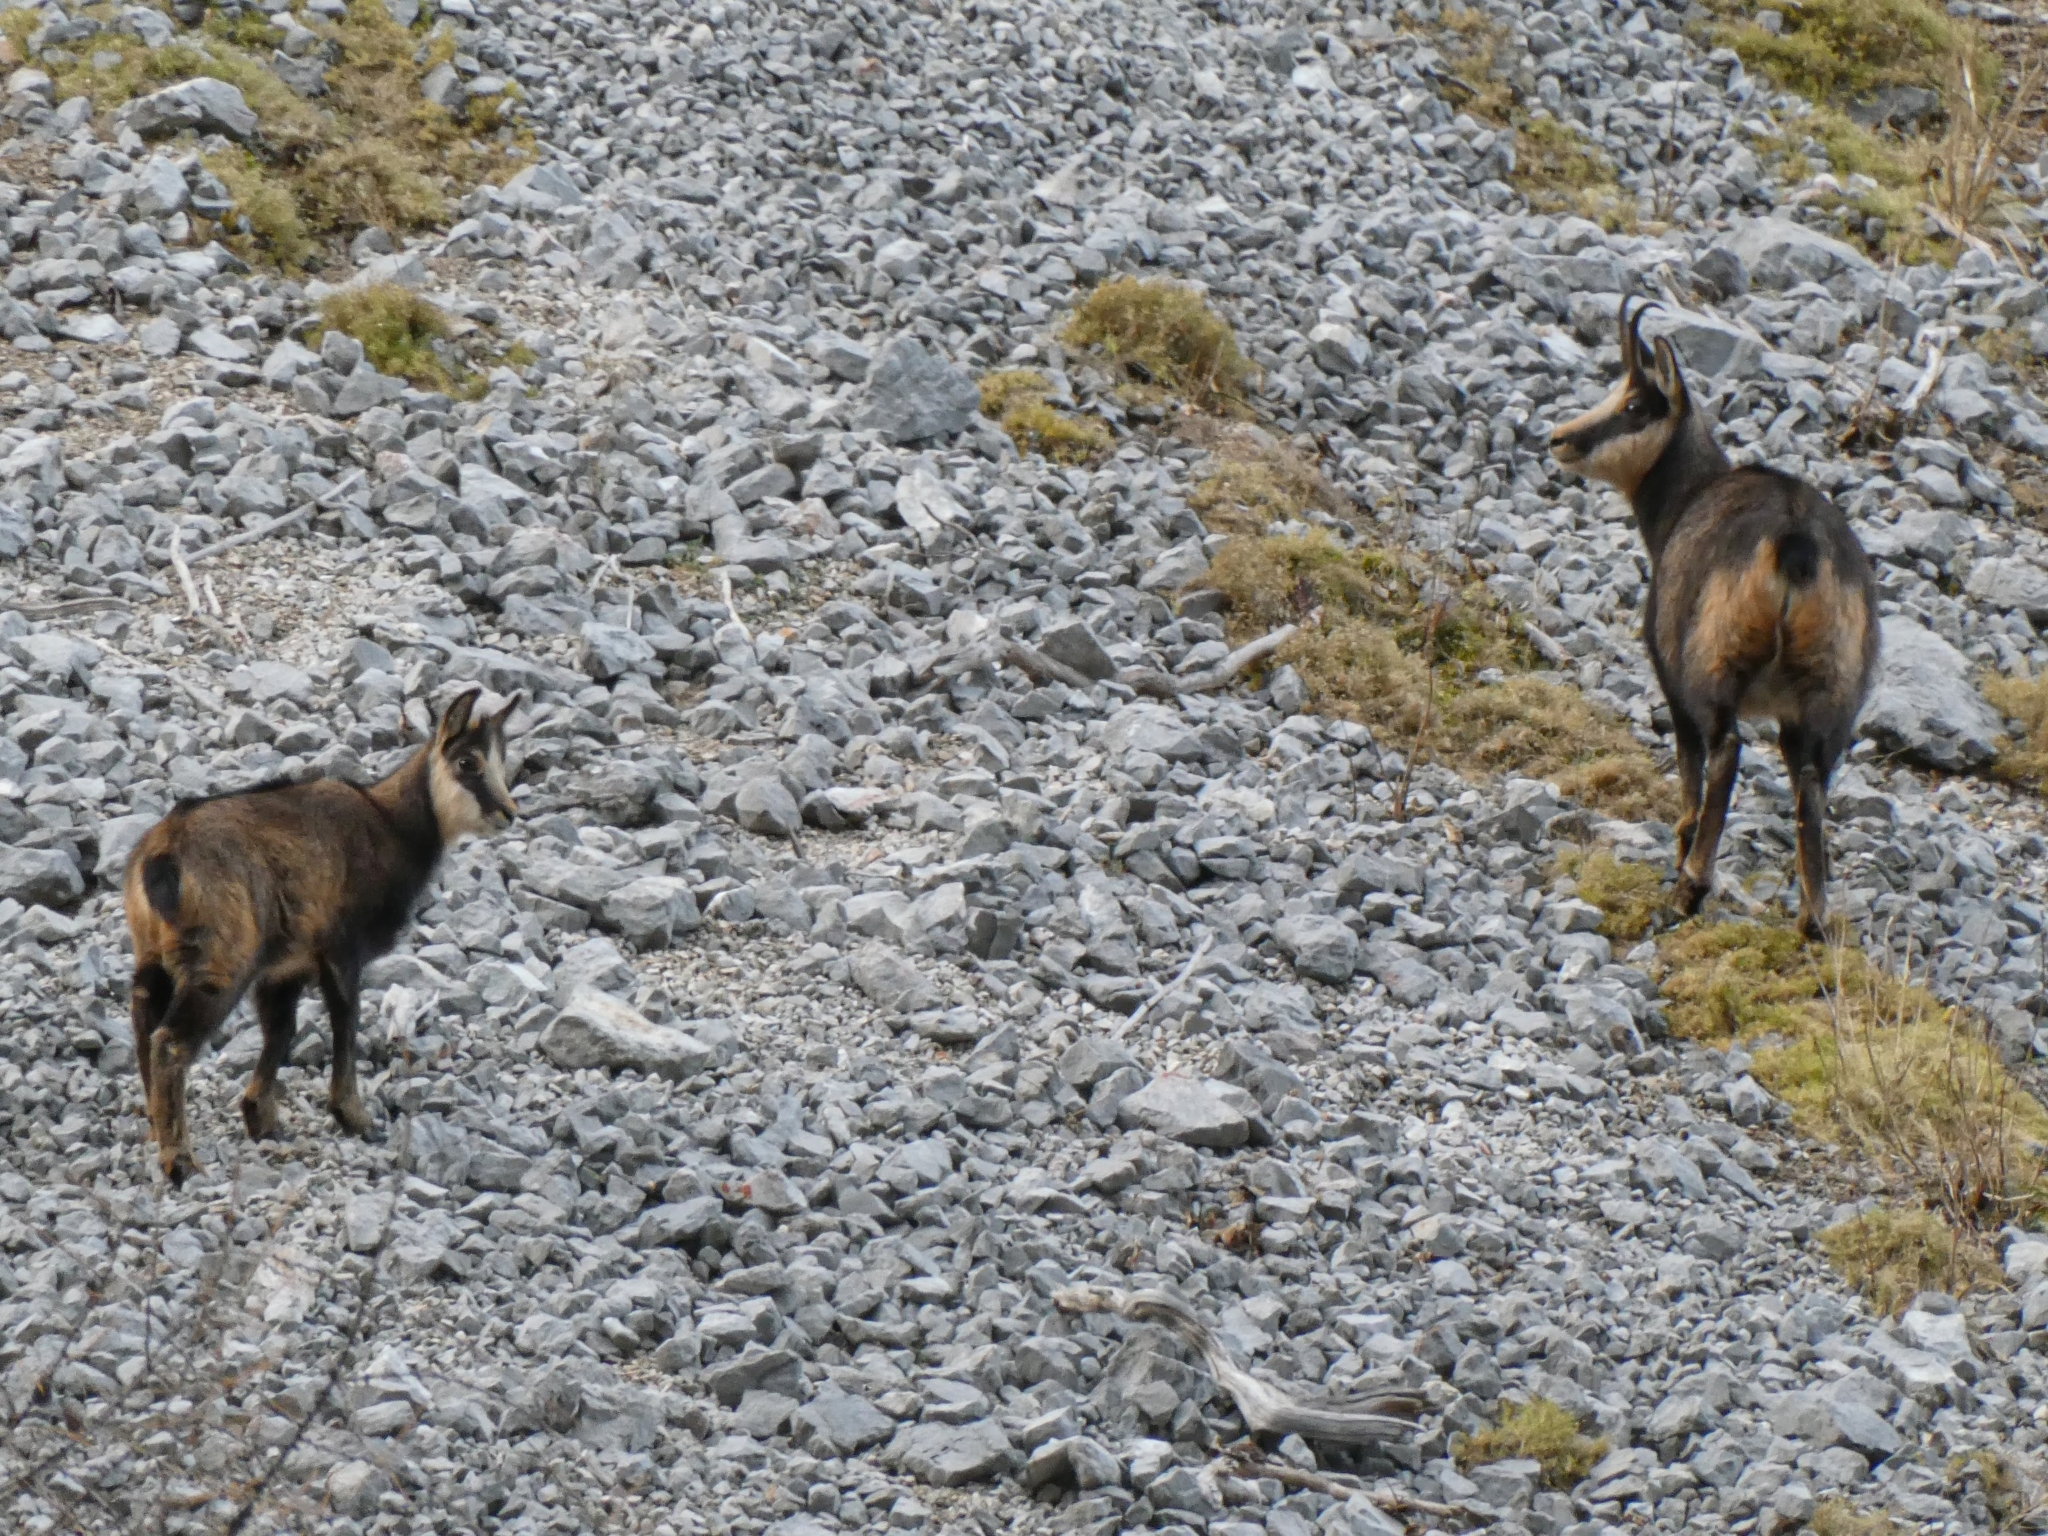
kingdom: Animalia
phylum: Chordata
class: Mammalia
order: Artiodactyla
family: Bovidae
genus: Rupicapra
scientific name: Rupicapra rupicapra
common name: Chamois
